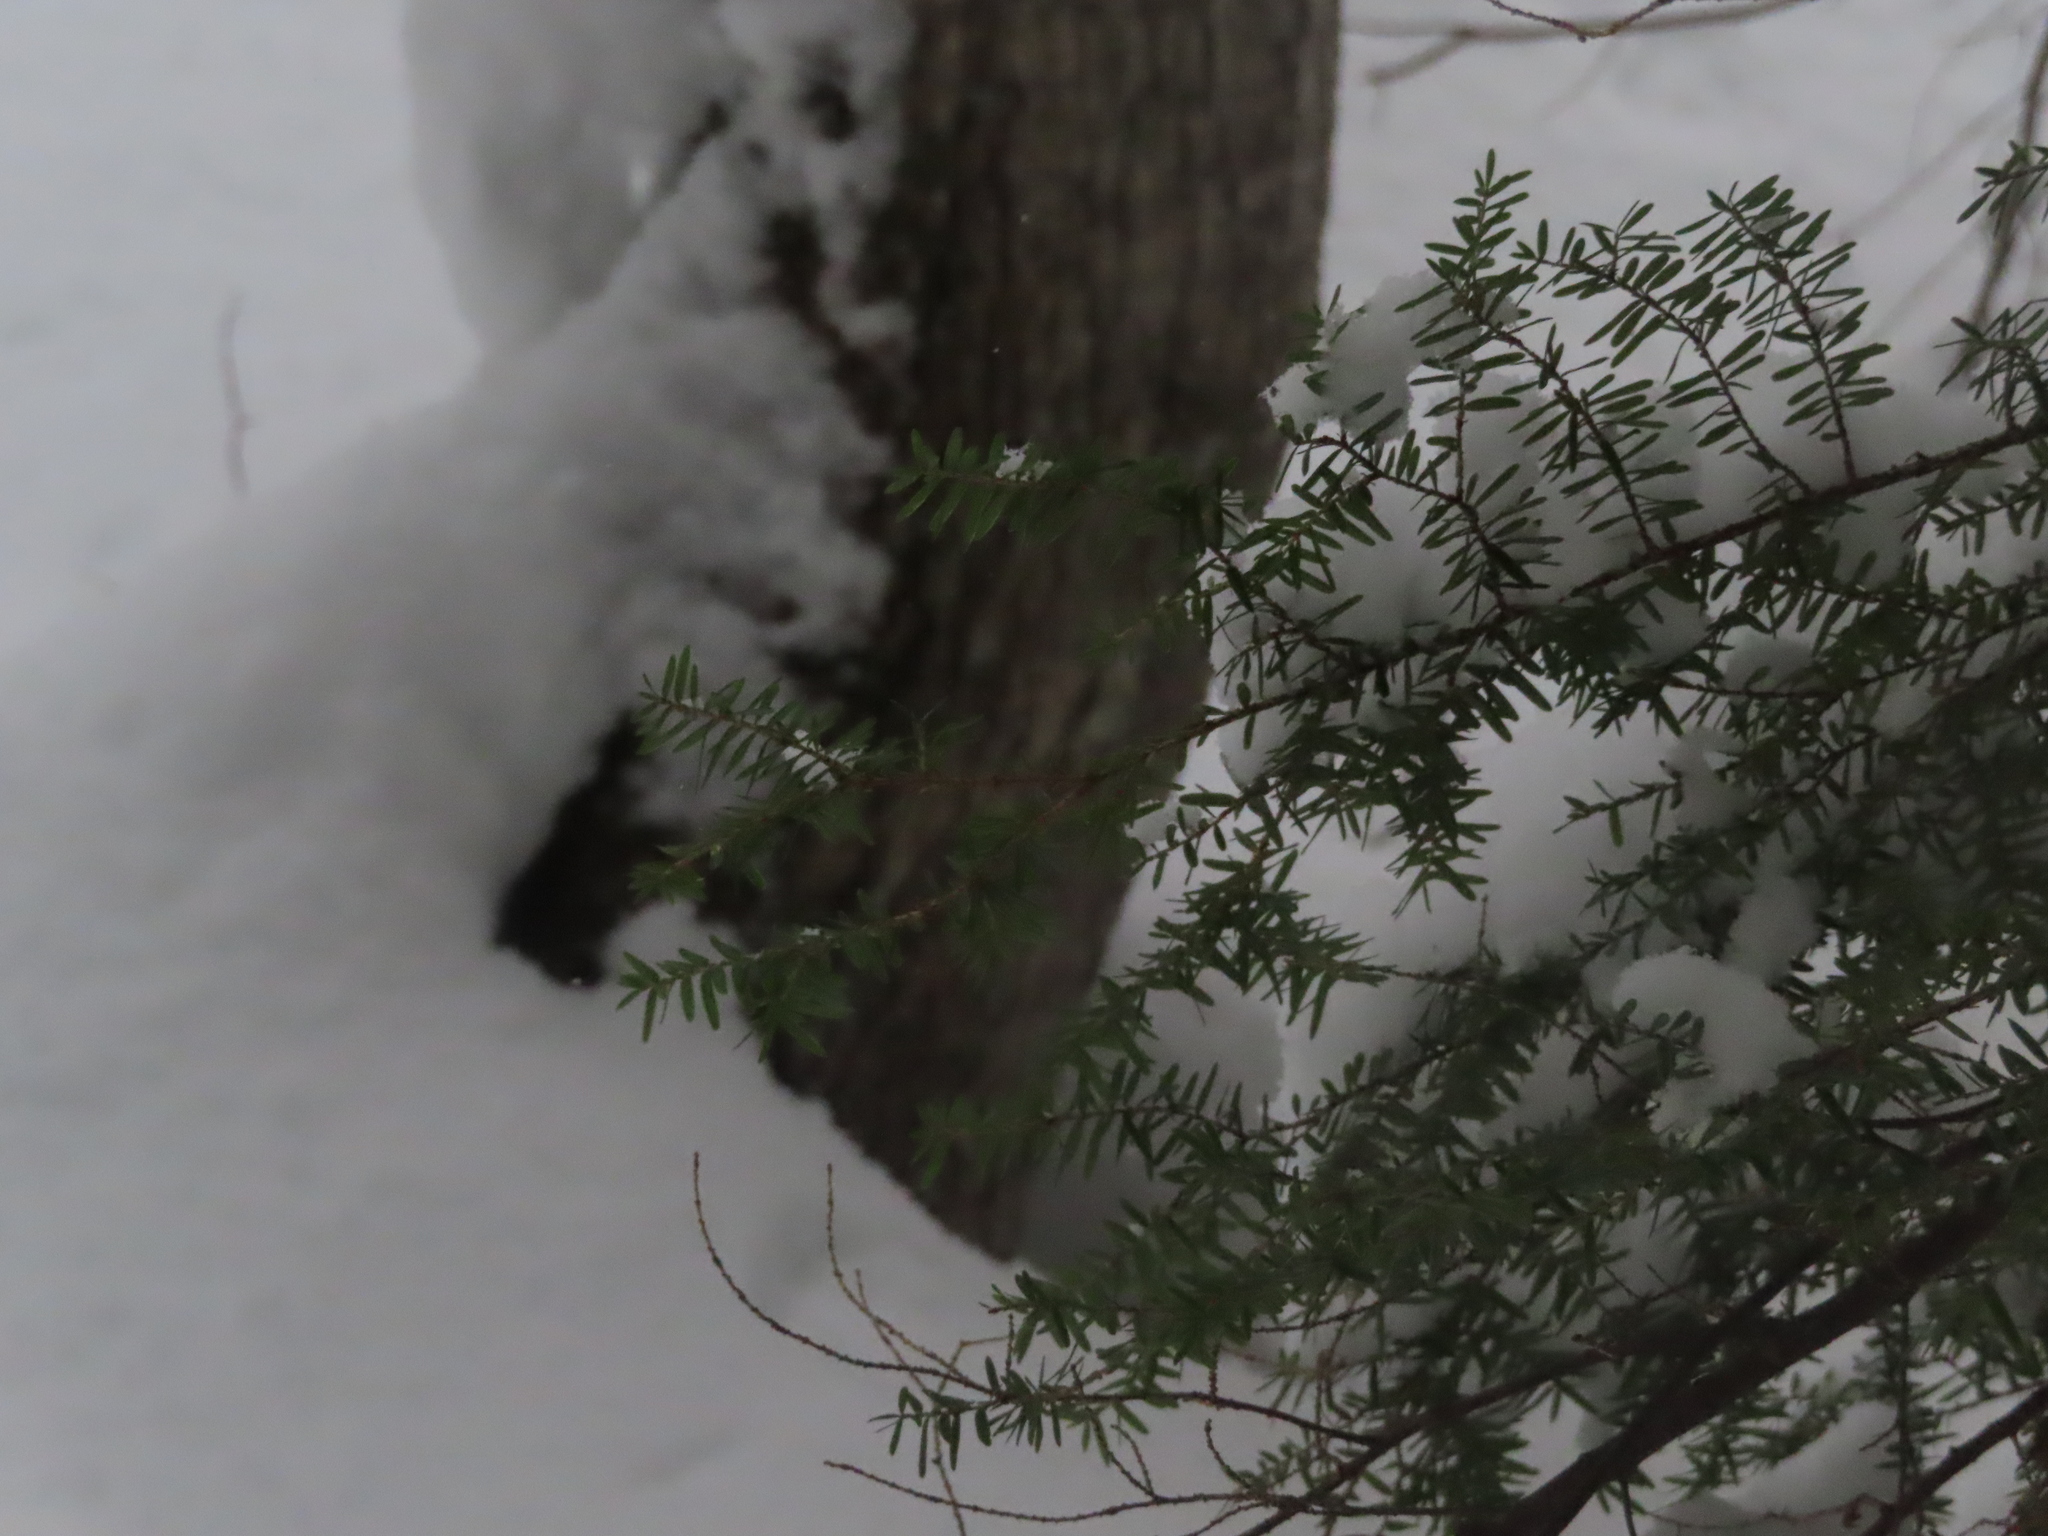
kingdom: Plantae
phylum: Tracheophyta
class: Pinopsida
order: Pinales
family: Pinaceae
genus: Tsuga
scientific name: Tsuga canadensis
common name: Eastern hemlock
